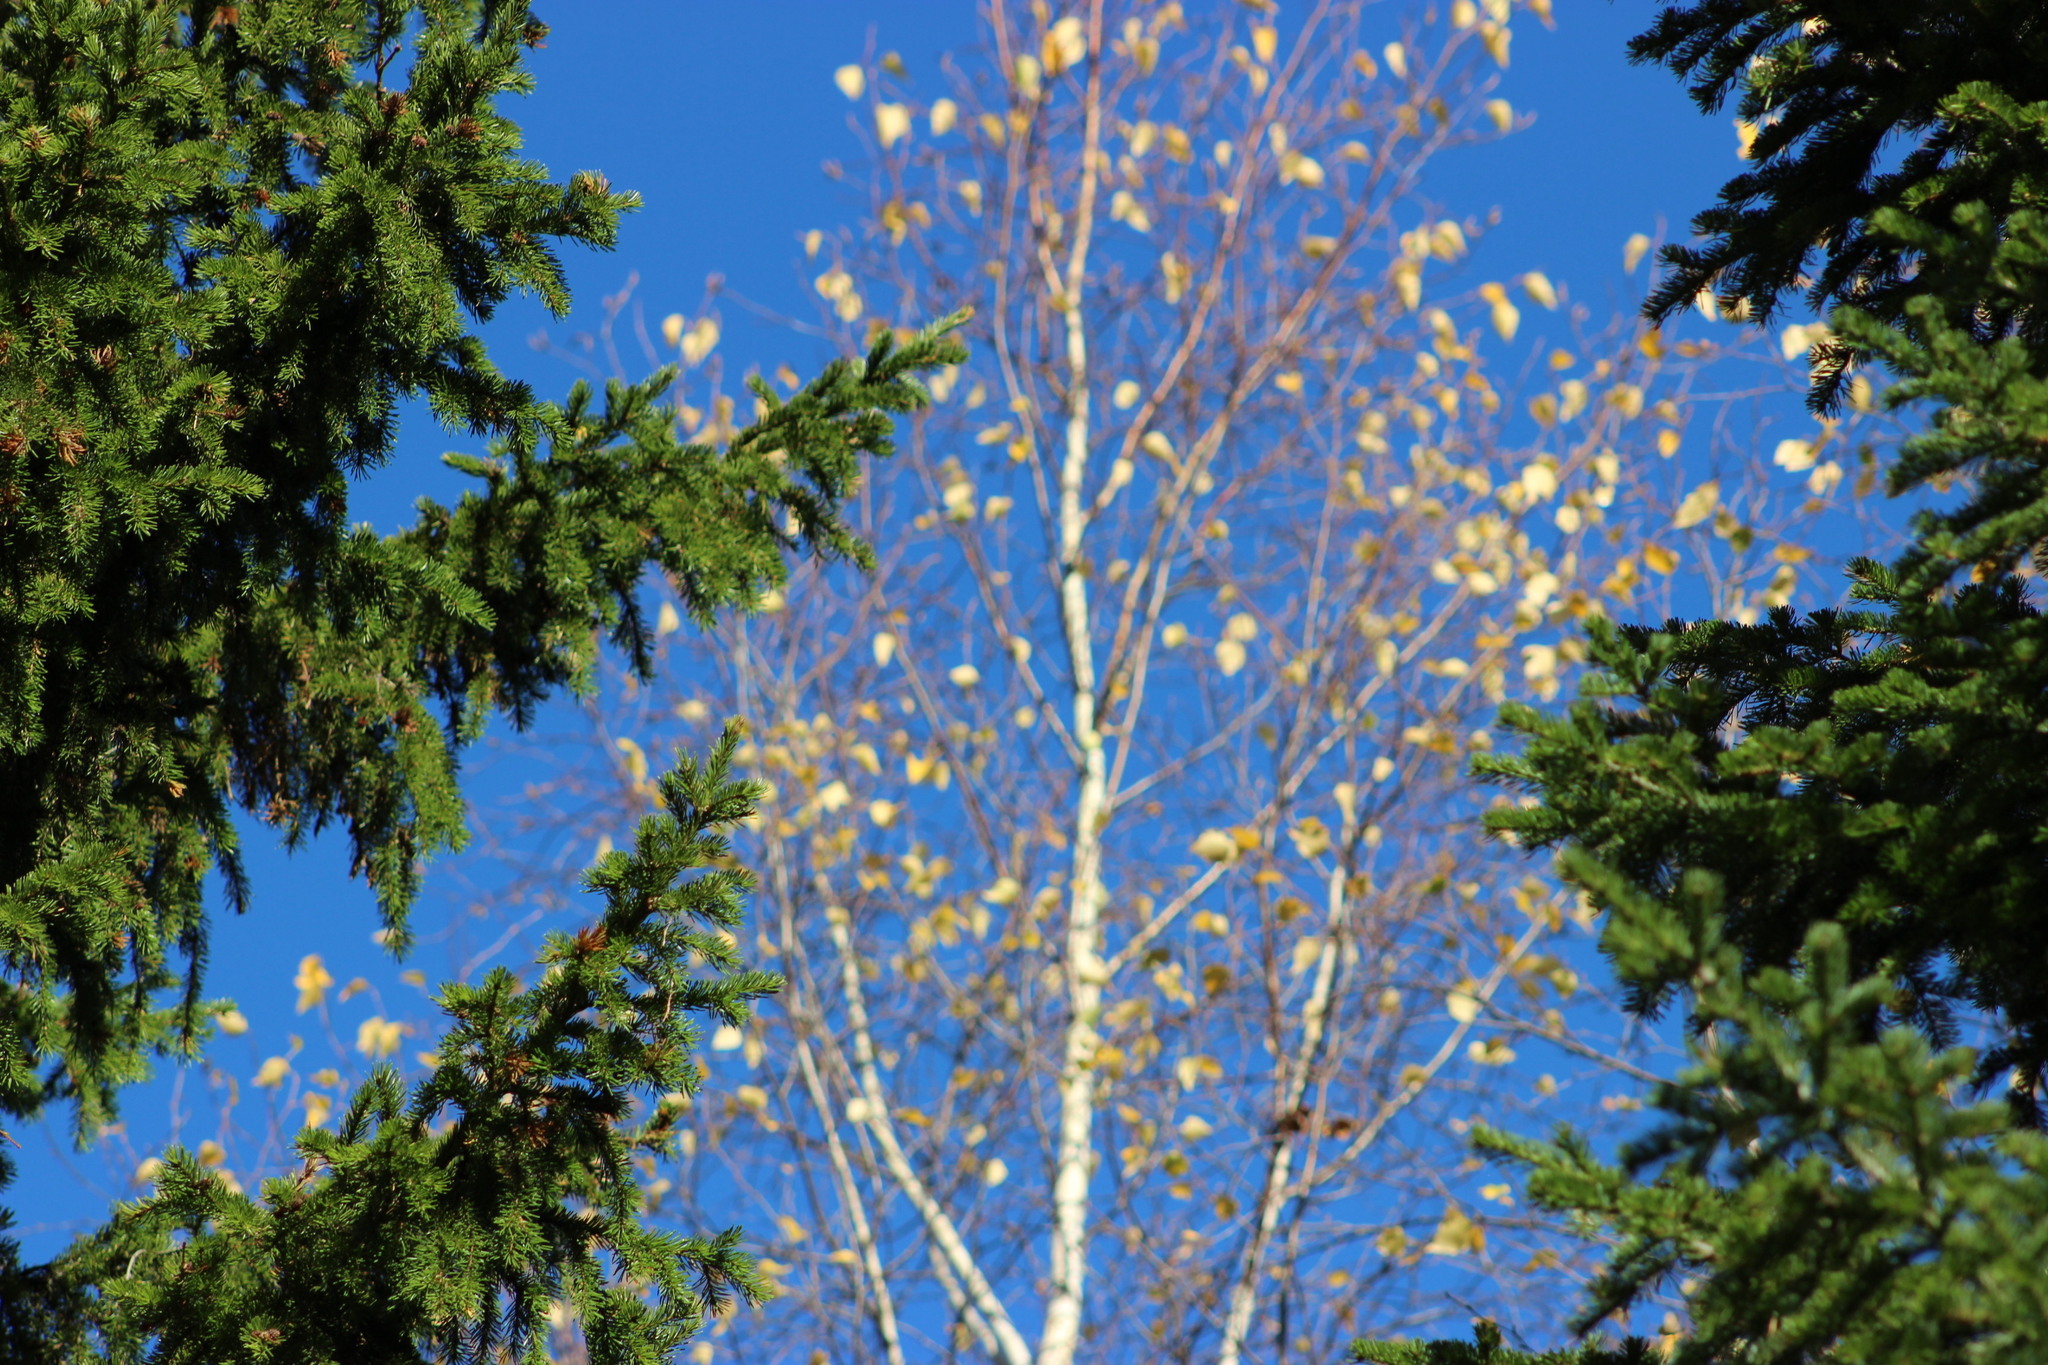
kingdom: Plantae
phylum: Tracheophyta
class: Pinopsida
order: Pinales
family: Pinaceae
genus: Picea
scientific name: Picea obovata
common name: Siberian spruce
